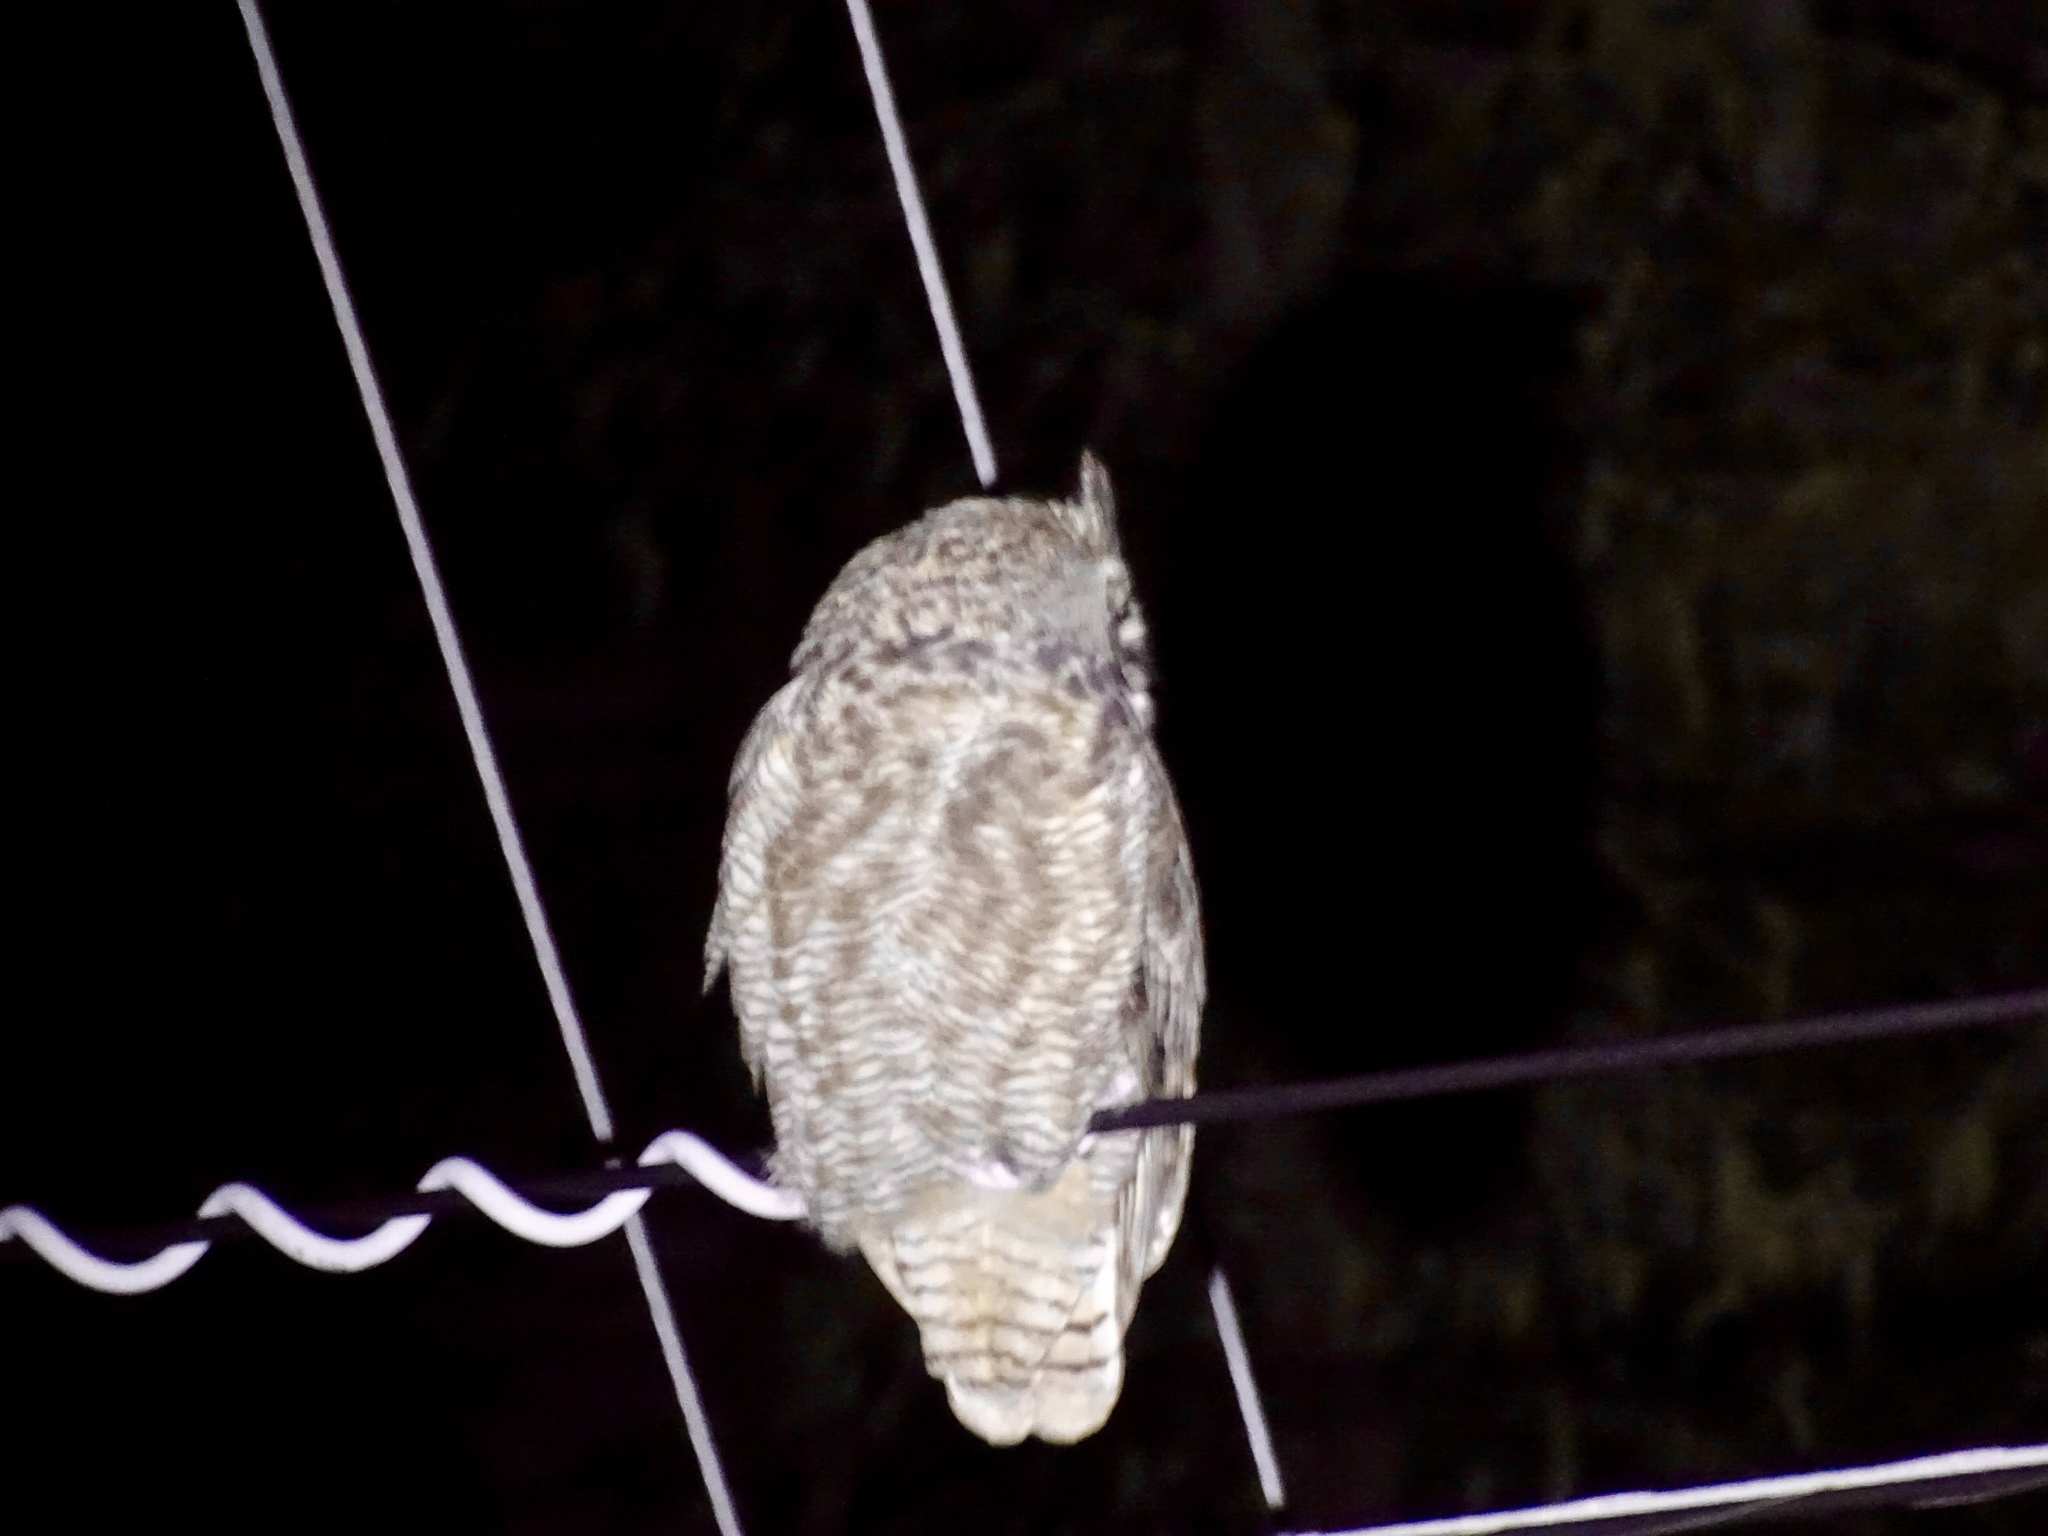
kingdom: Animalia
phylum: Chordata
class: Aves
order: Strigiformes
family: Strigidae
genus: Bubo
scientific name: Bubo virginianus
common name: Great horned owl
